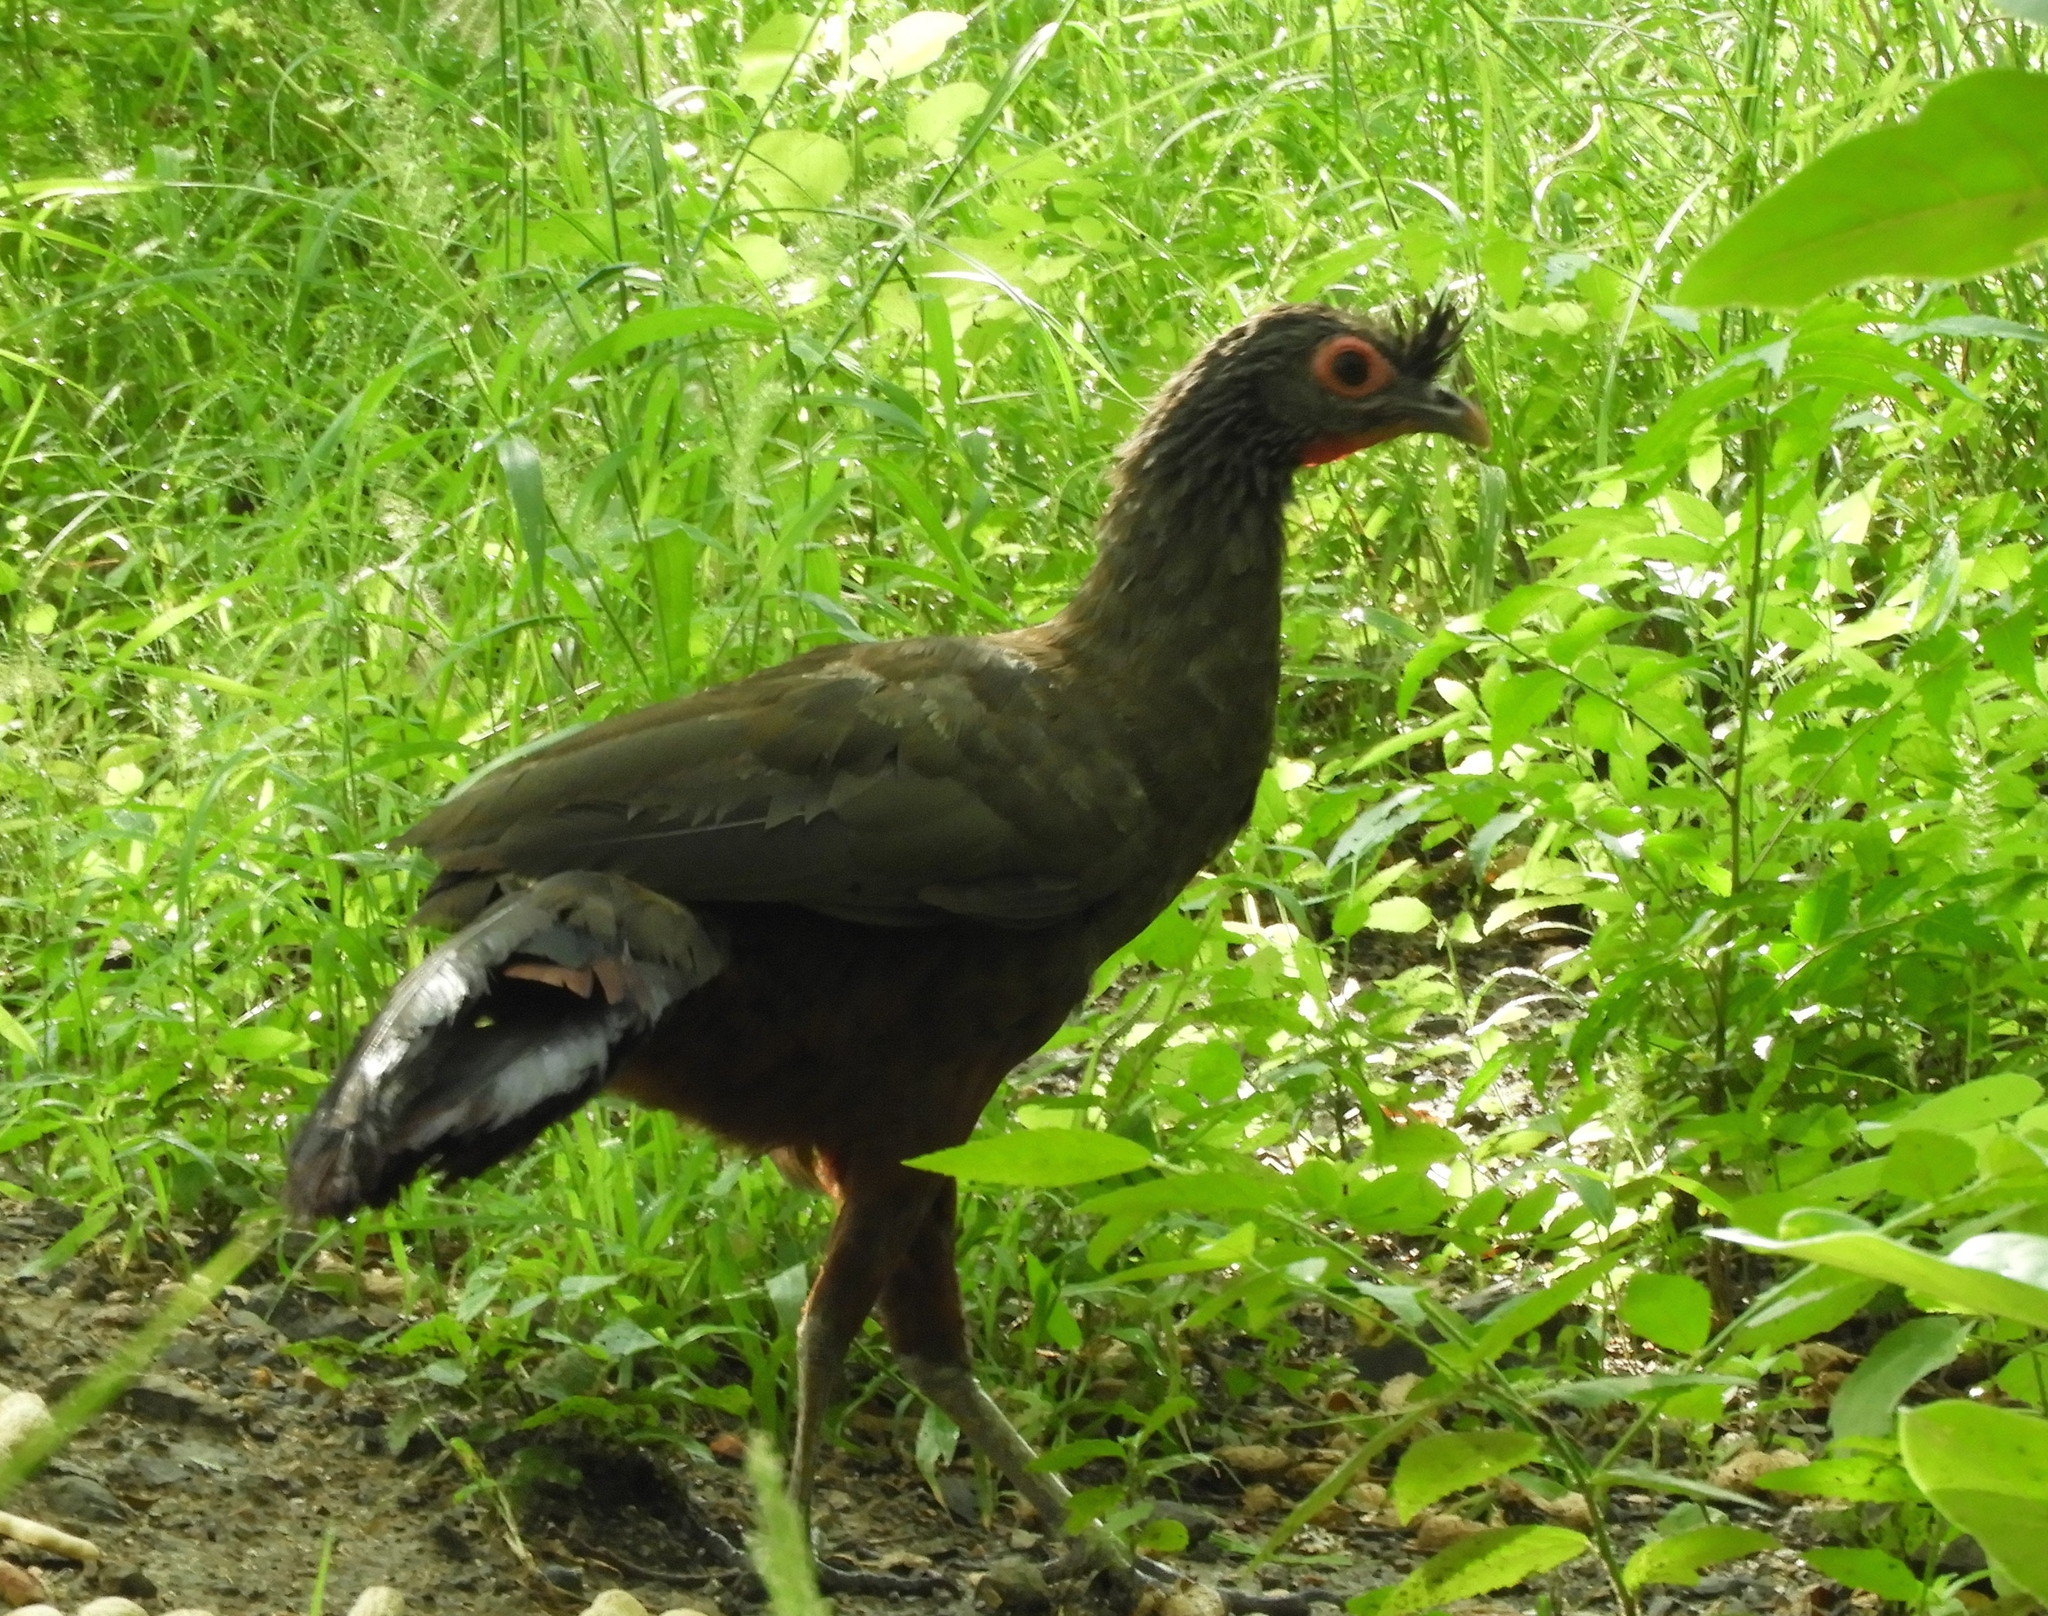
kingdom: Animalia
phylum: Chordata
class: Aves
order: Galliformes
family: Cracidae
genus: Ortalis
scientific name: Ortalis wagleri
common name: Rufous-bellied chachalaca
